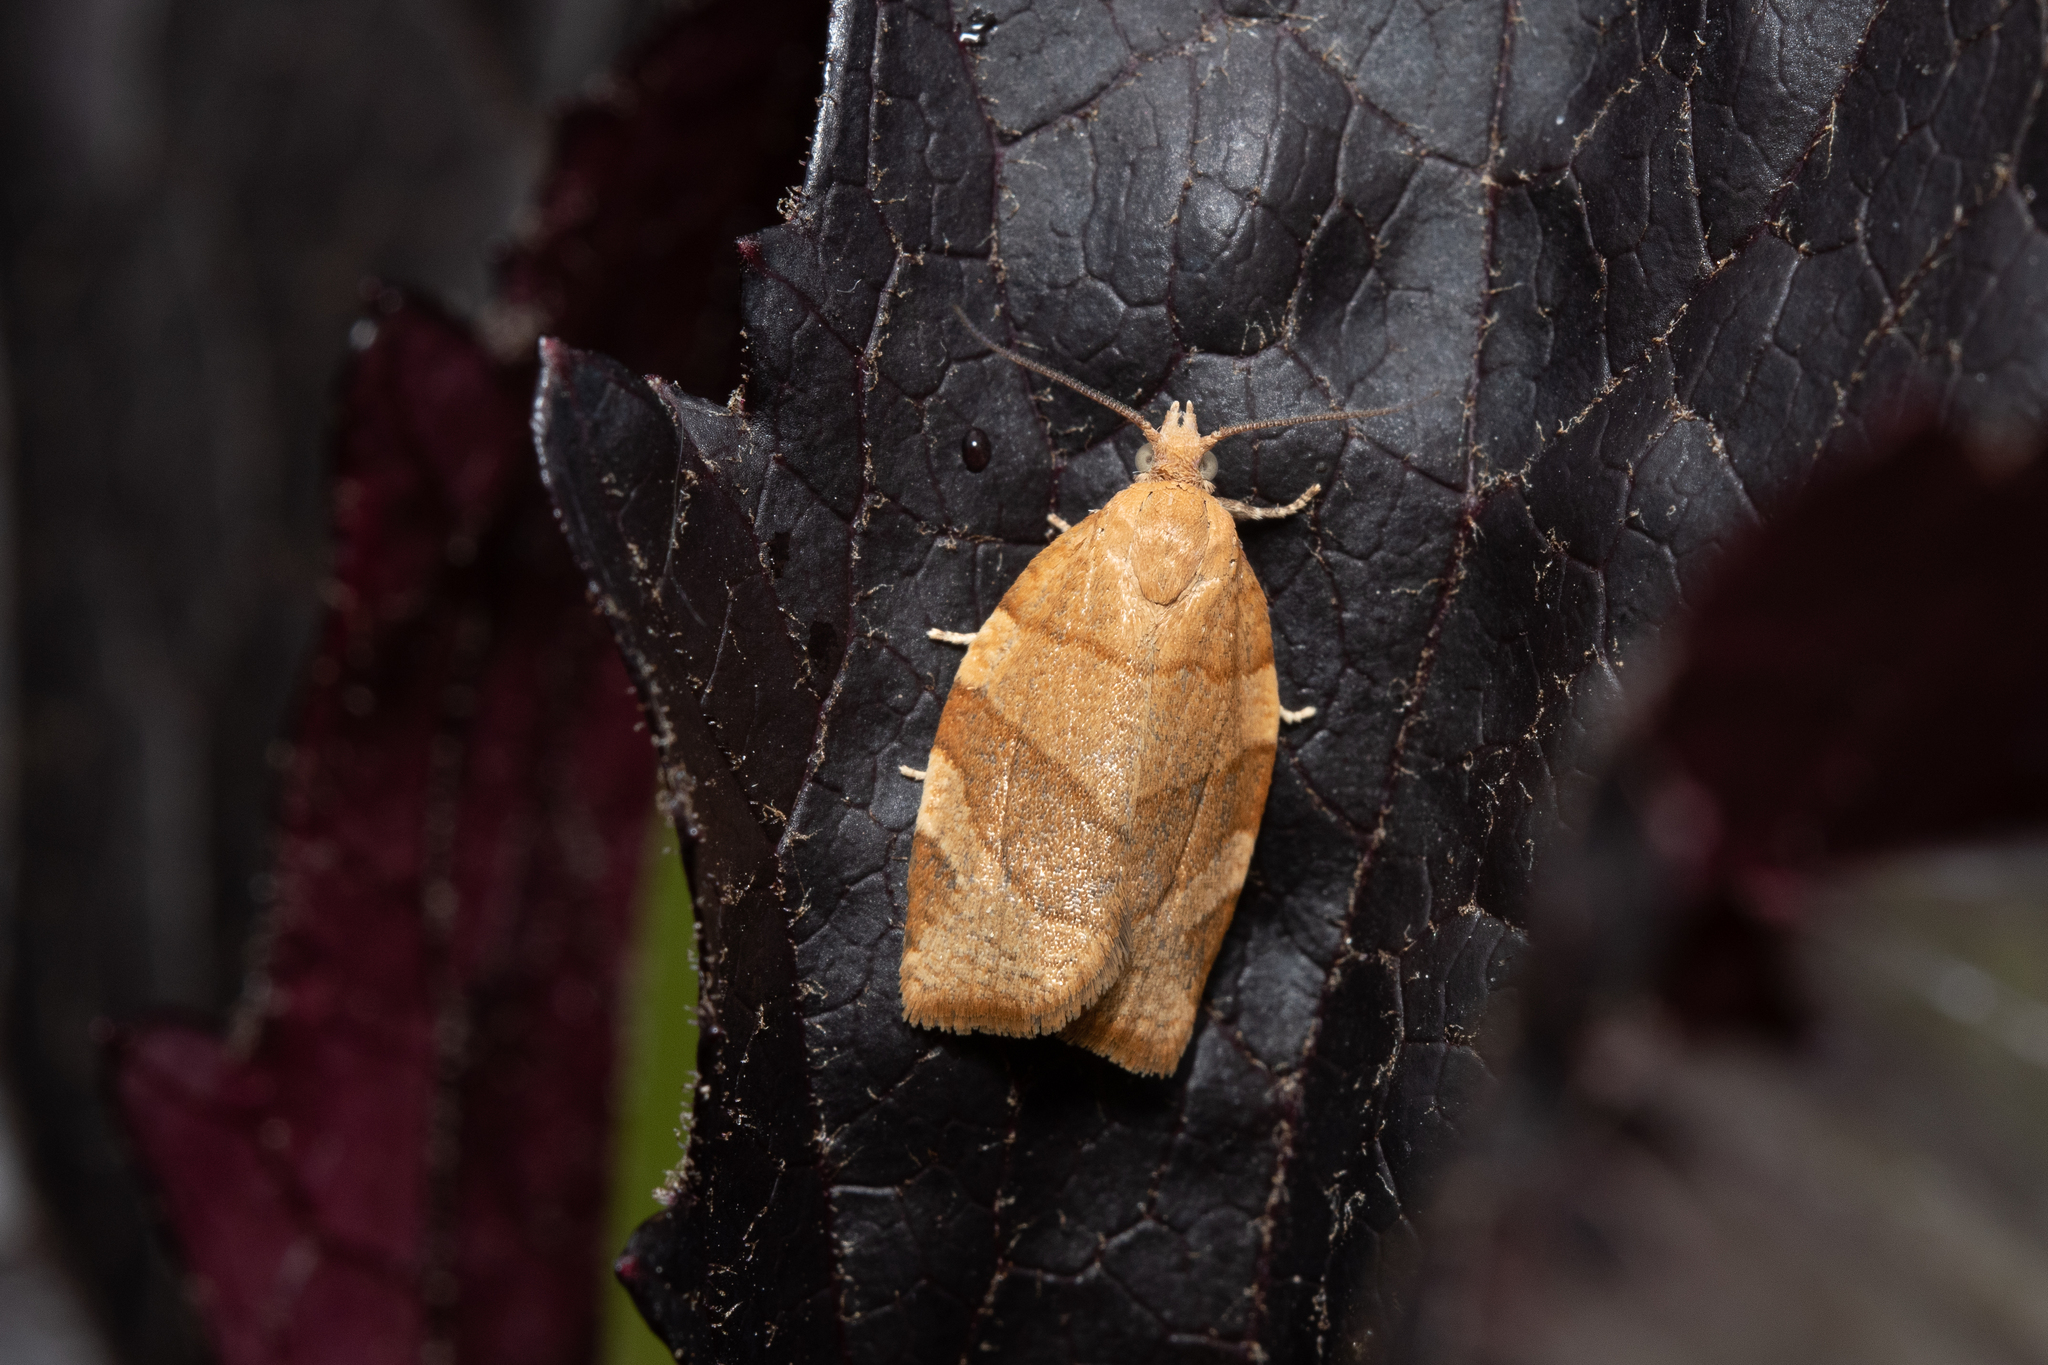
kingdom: Animalia
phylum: Arthropoda
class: Insecta
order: Lepidoptera
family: Tortricidae
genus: Pandemis
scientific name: Pandemis cerasana
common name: Barred fruit-tree tortrix
